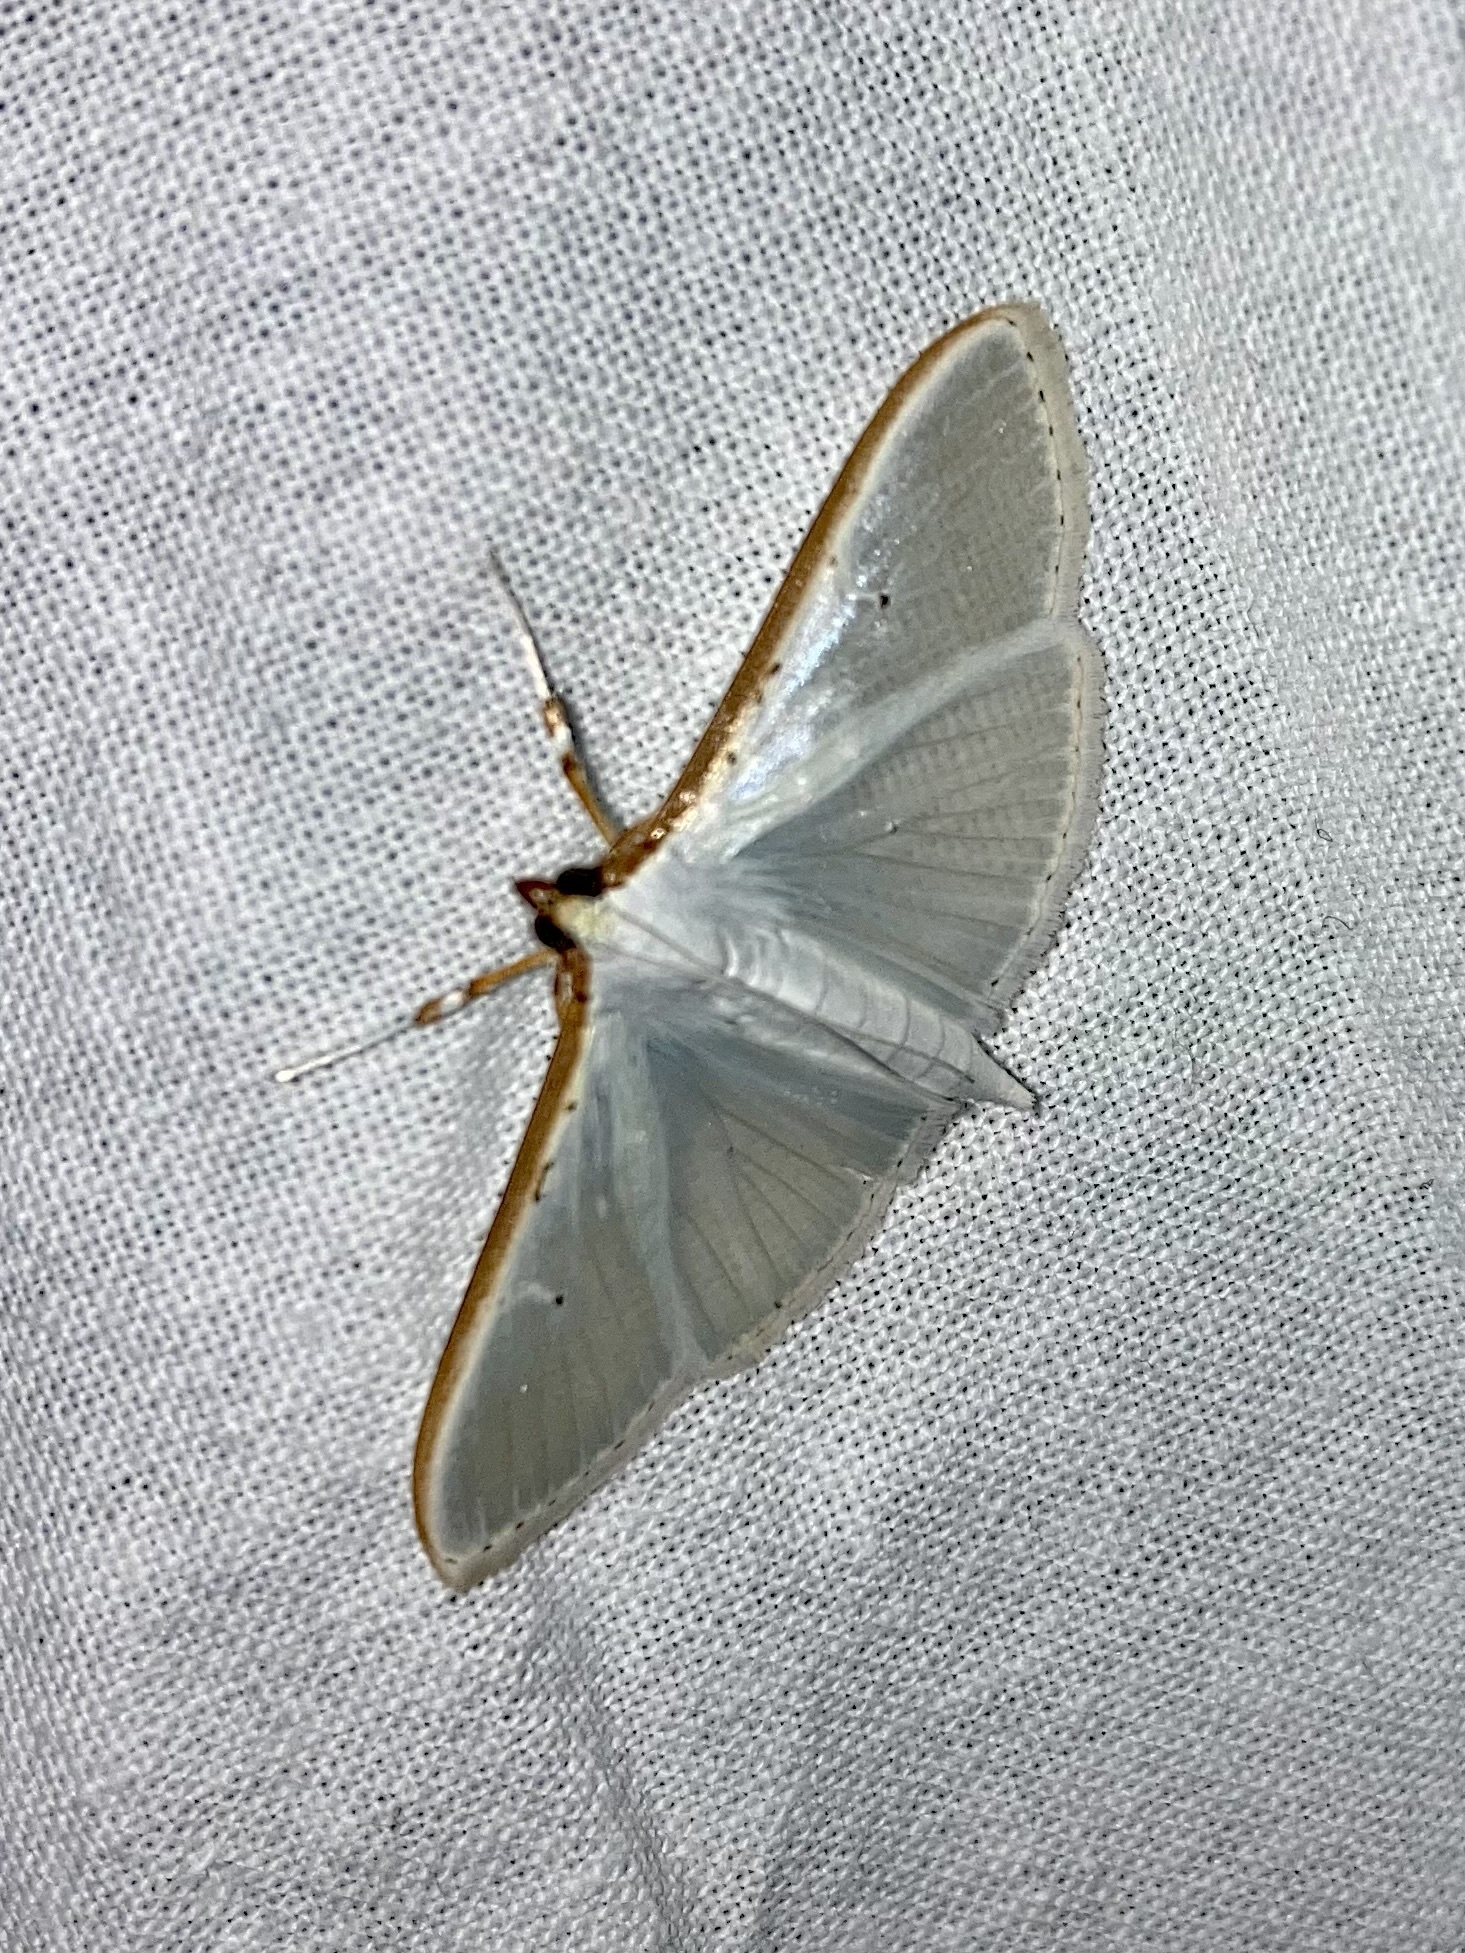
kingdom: Animalia
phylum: Arthropoda
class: Insecta
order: Lepidoptera
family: Crambidae
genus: Palpita
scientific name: Palpita vitrealis
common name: Olive-tree pearl
